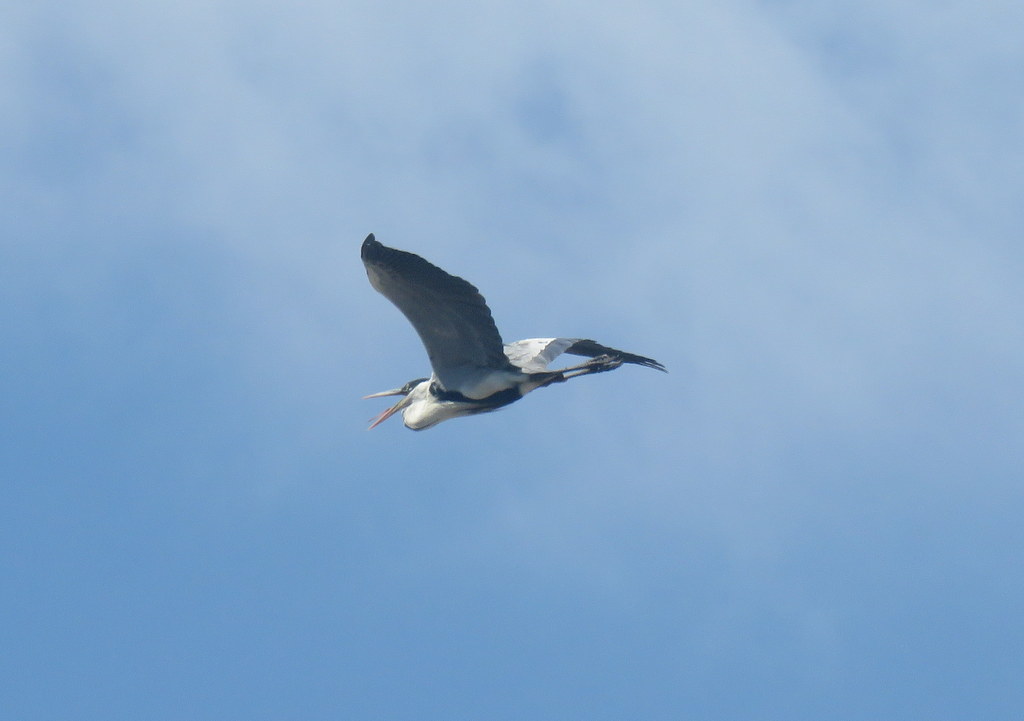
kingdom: Animalia
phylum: Chordata
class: Aves
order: Pelecaniformes
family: Ardeidae
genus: Ardea
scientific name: Ardea cocoi
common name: Cocoi heron
